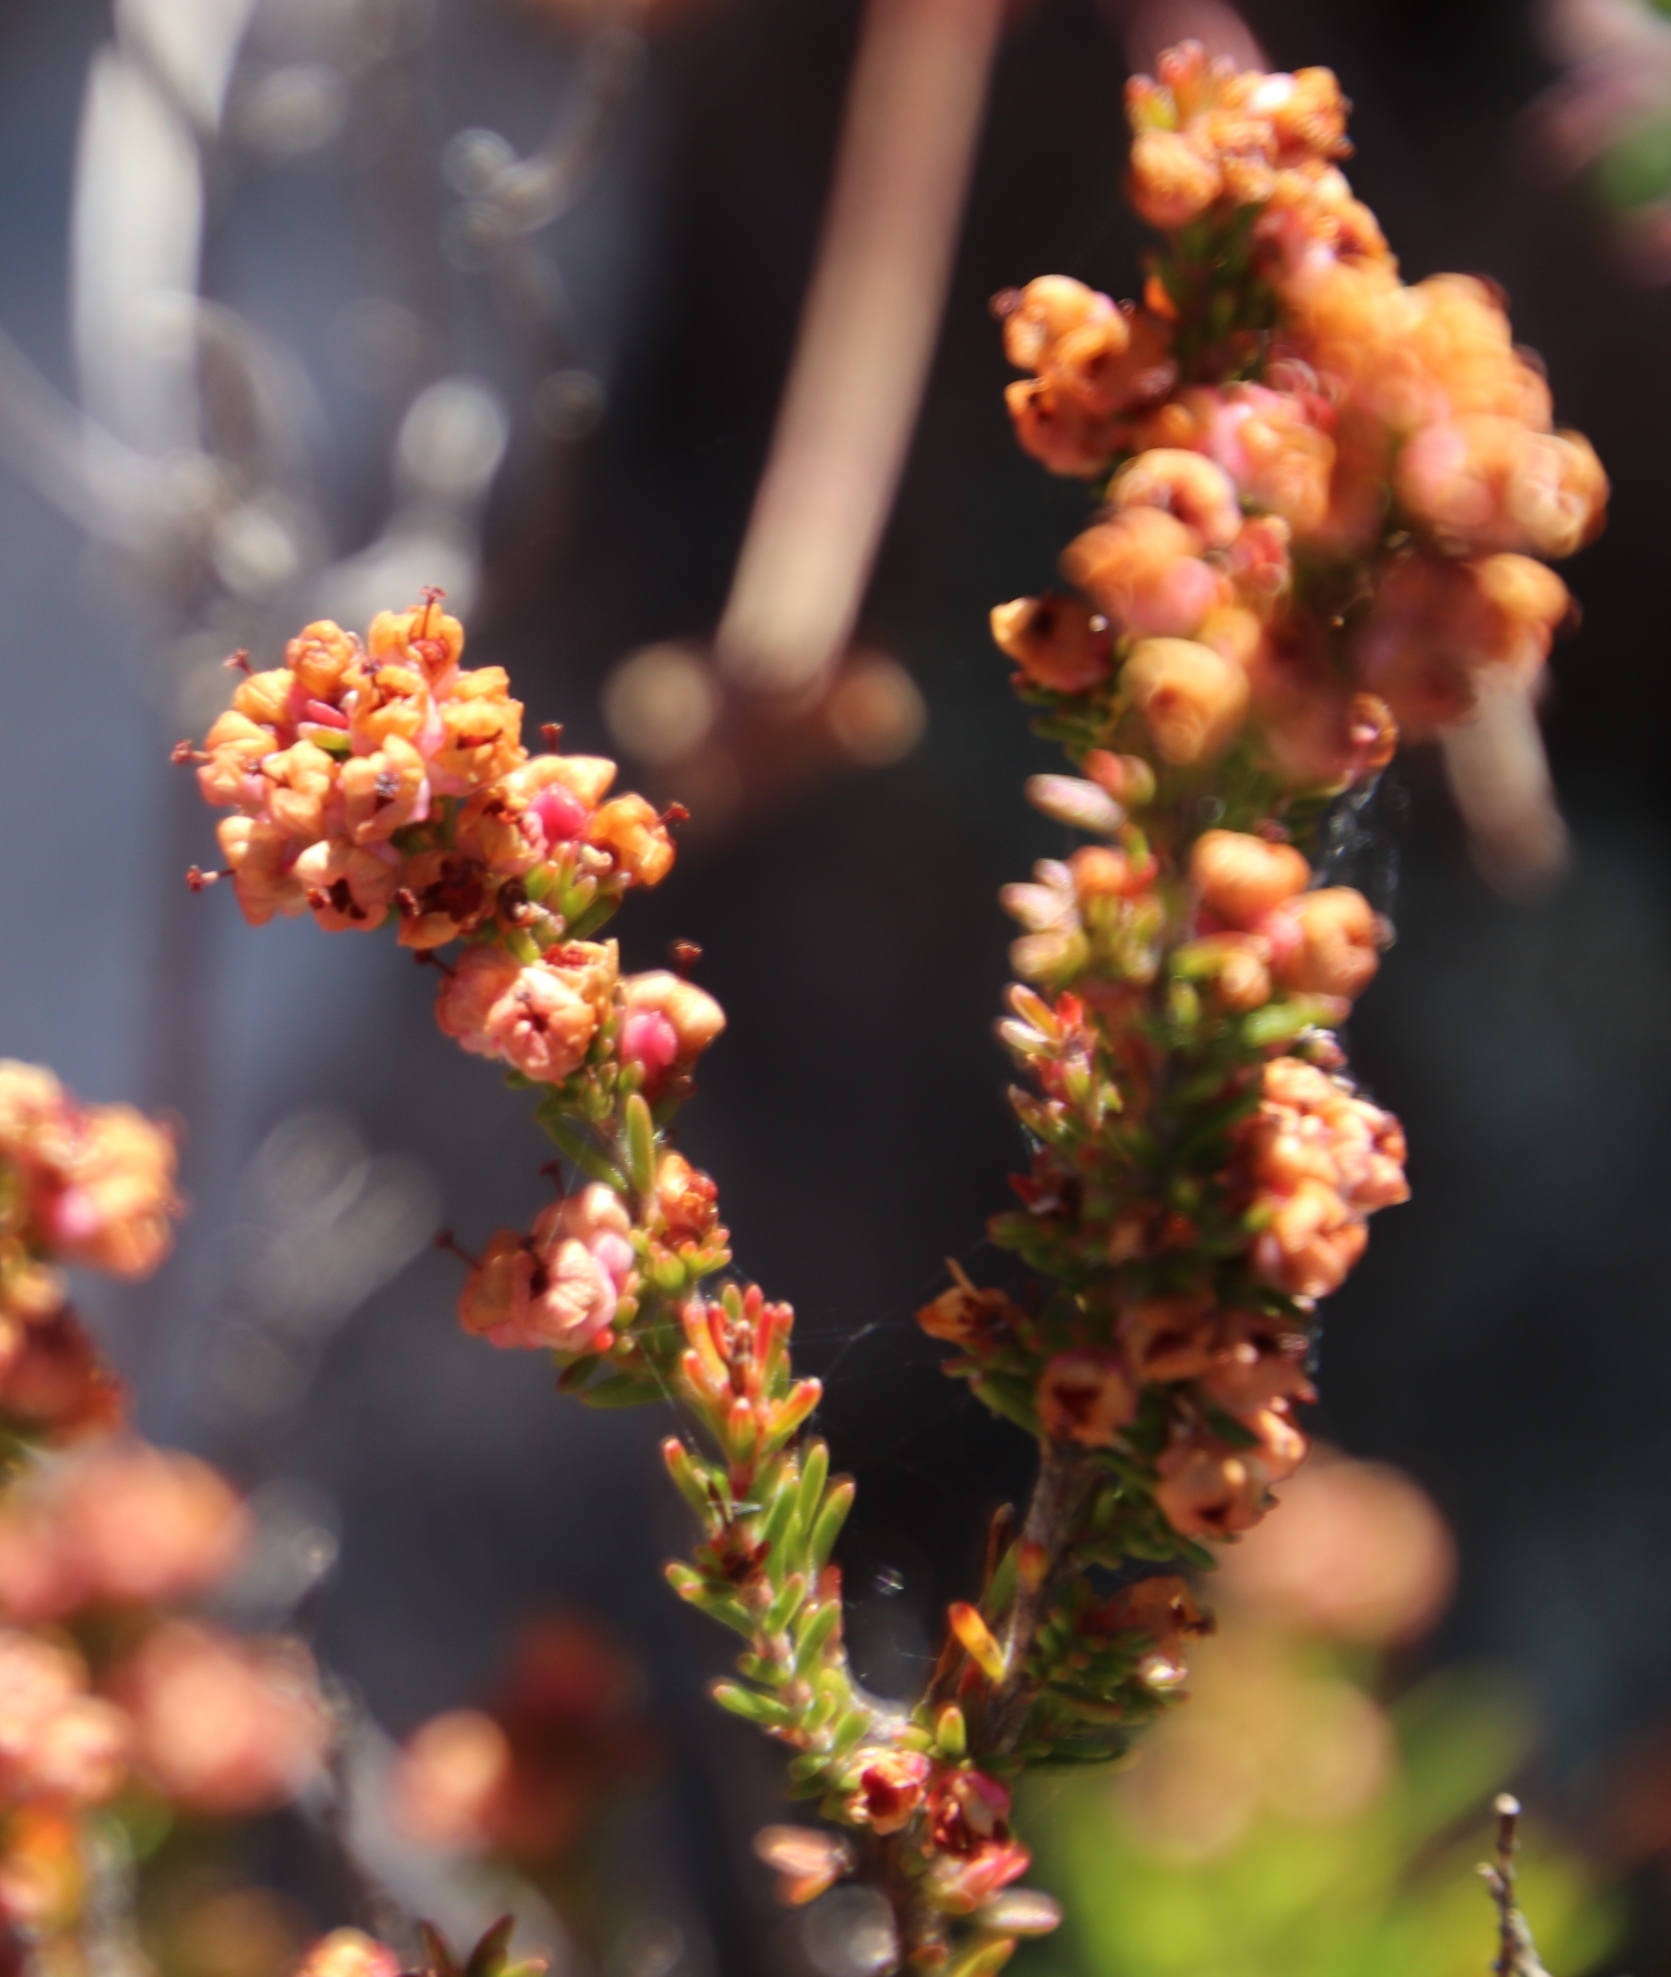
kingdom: Plantae
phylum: Tracheophyta
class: Magnoliopsida
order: Ericales
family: Ericaceae
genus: Erica
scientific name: Erica cristiflora
